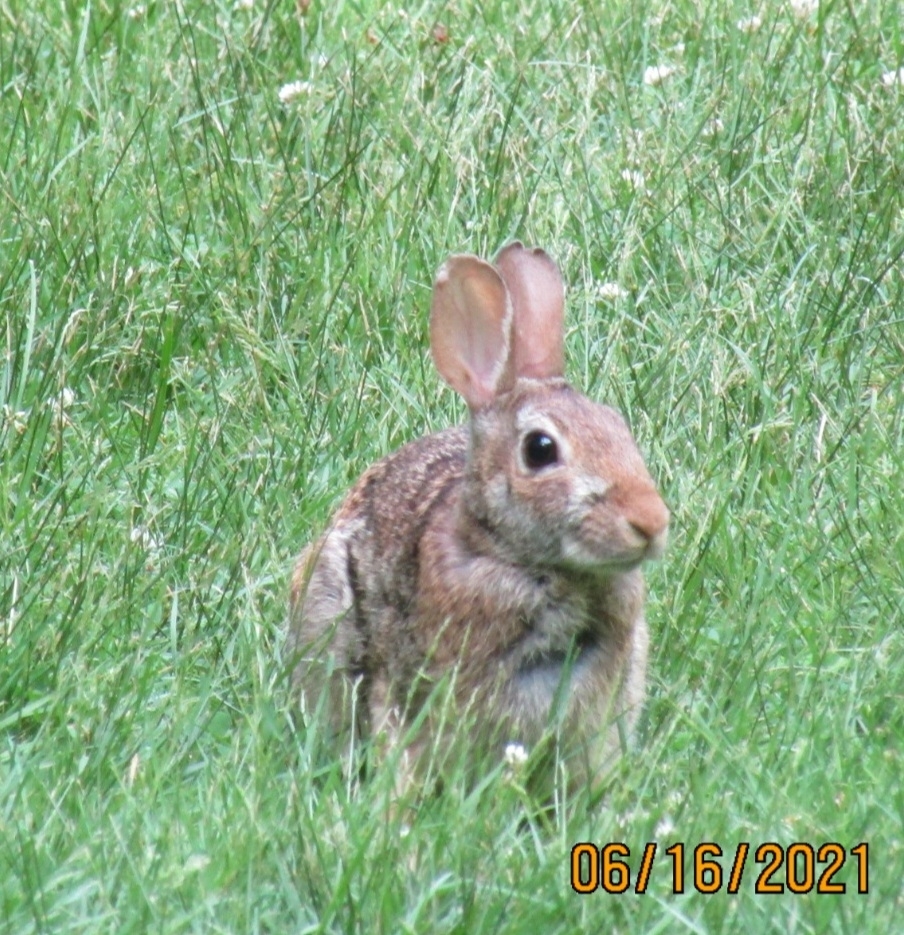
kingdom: Animalia
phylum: Chordata
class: Mammalia
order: Lagomorpha
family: Leporidae
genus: Sylvilagus
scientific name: Sylvilagus floridanus
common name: Eastern cottontail
